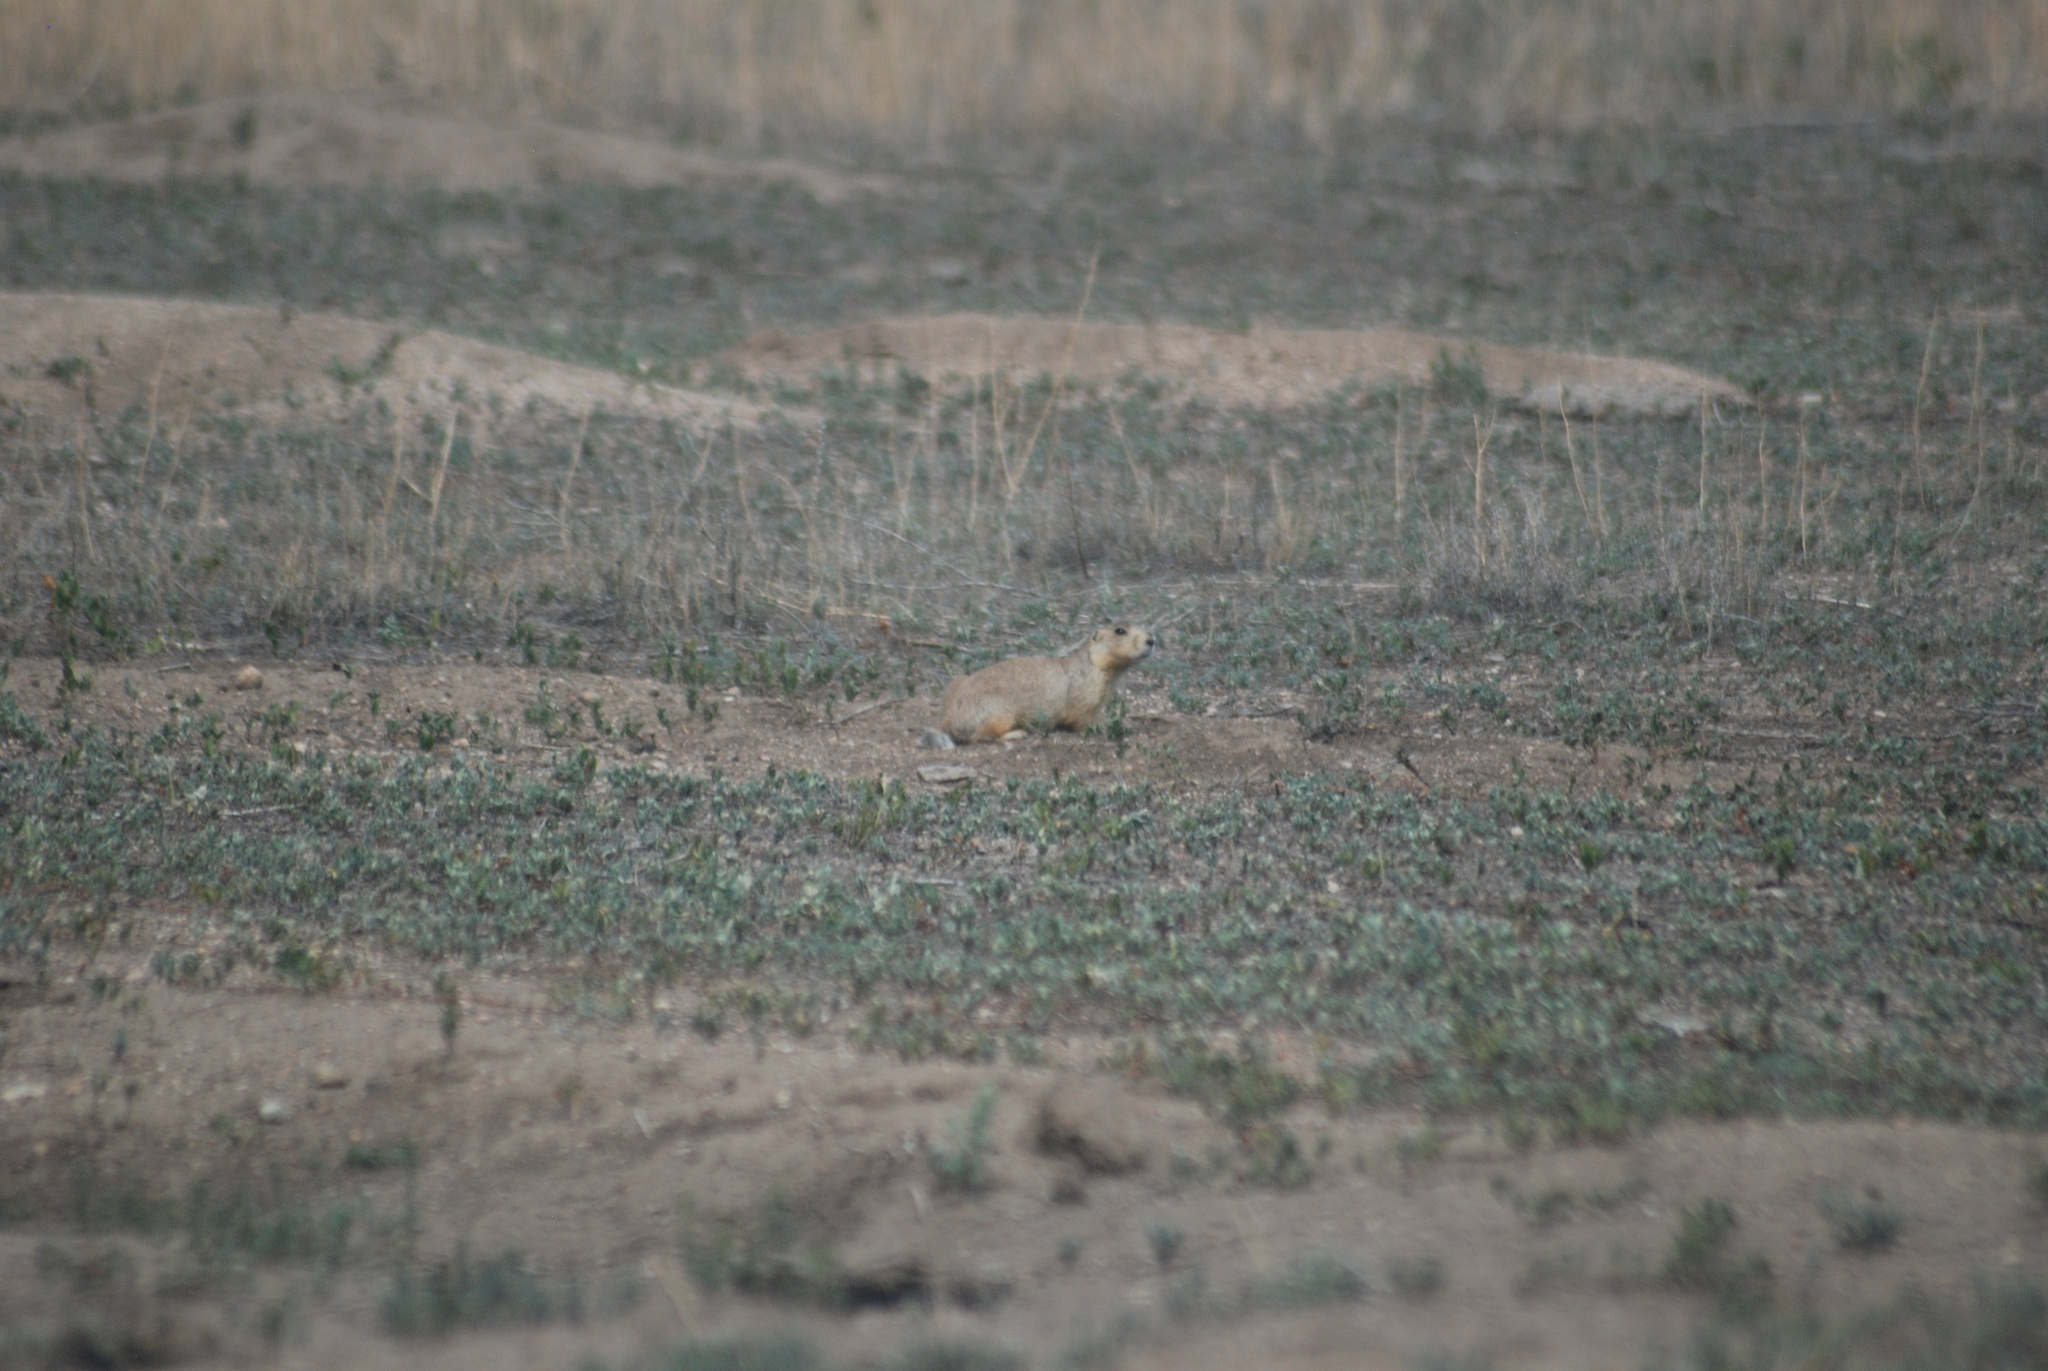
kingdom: Animalia
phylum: Chordata
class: Mammalia
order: Rodentia
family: Sciuridae
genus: Cynomys
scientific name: Cynomys gunnisoni
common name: Gunnison's prairie dog
